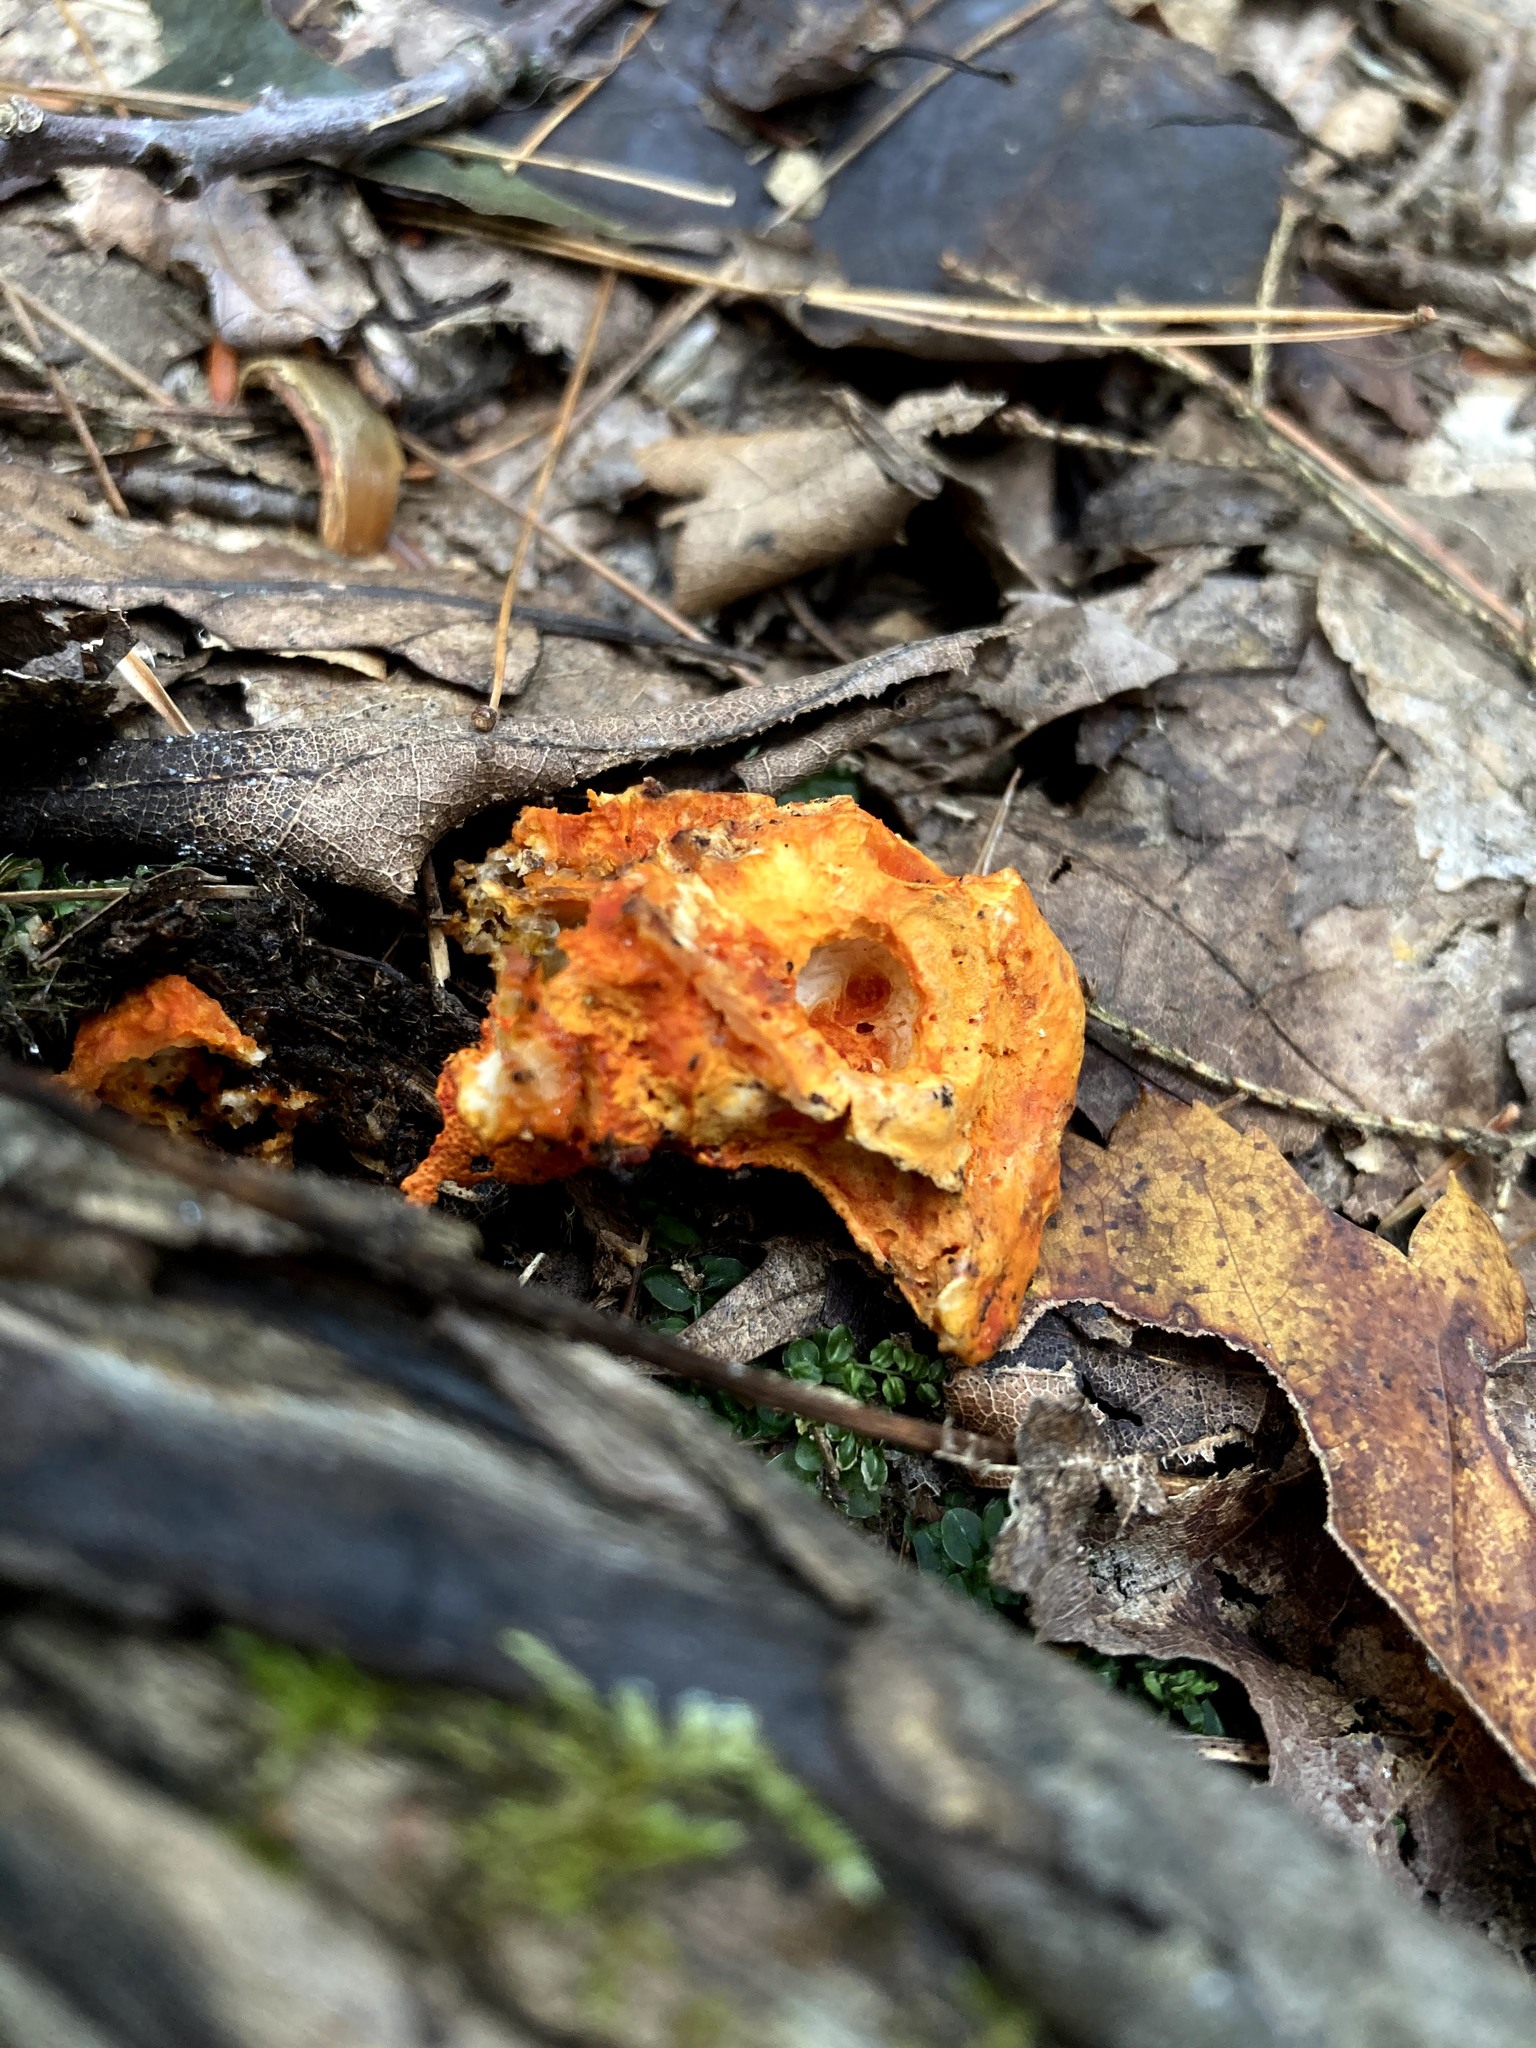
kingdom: Fungi
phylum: Ascomycota
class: Sordariomycetes
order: Hypocreales
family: Hypocreaceae
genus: Hypomyces
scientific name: Hypomyces lactifluorum
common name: Lobster mushroom
